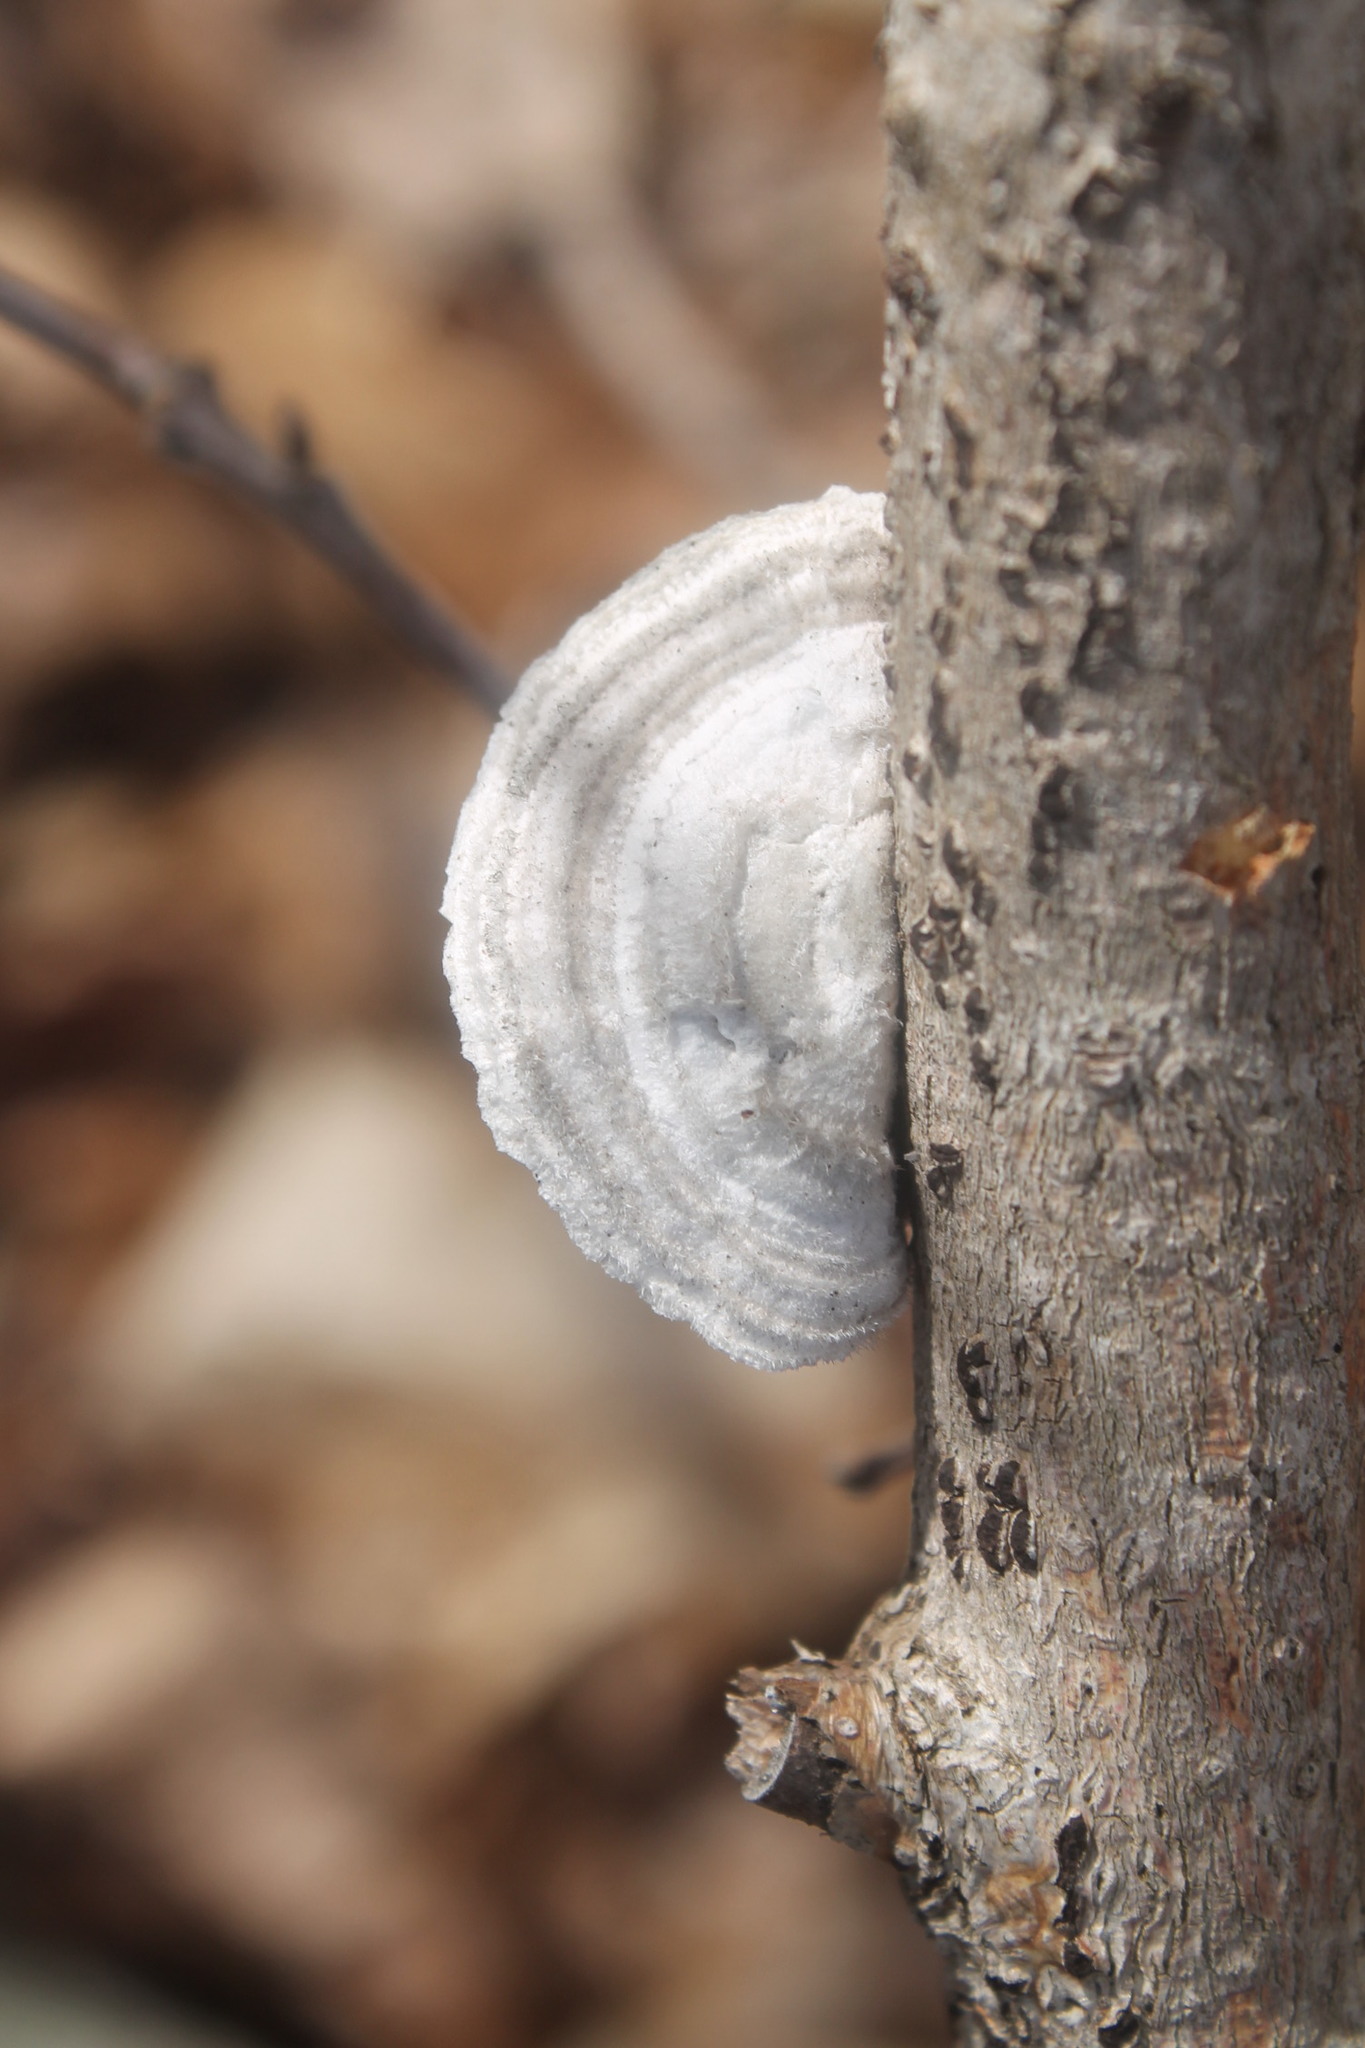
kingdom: Fungi
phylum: Basidiomycota
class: Agaricomycetes
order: Polyporales
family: Polyporaceae
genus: Trametes
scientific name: Trametes hirsuta
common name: Hairy bracket
